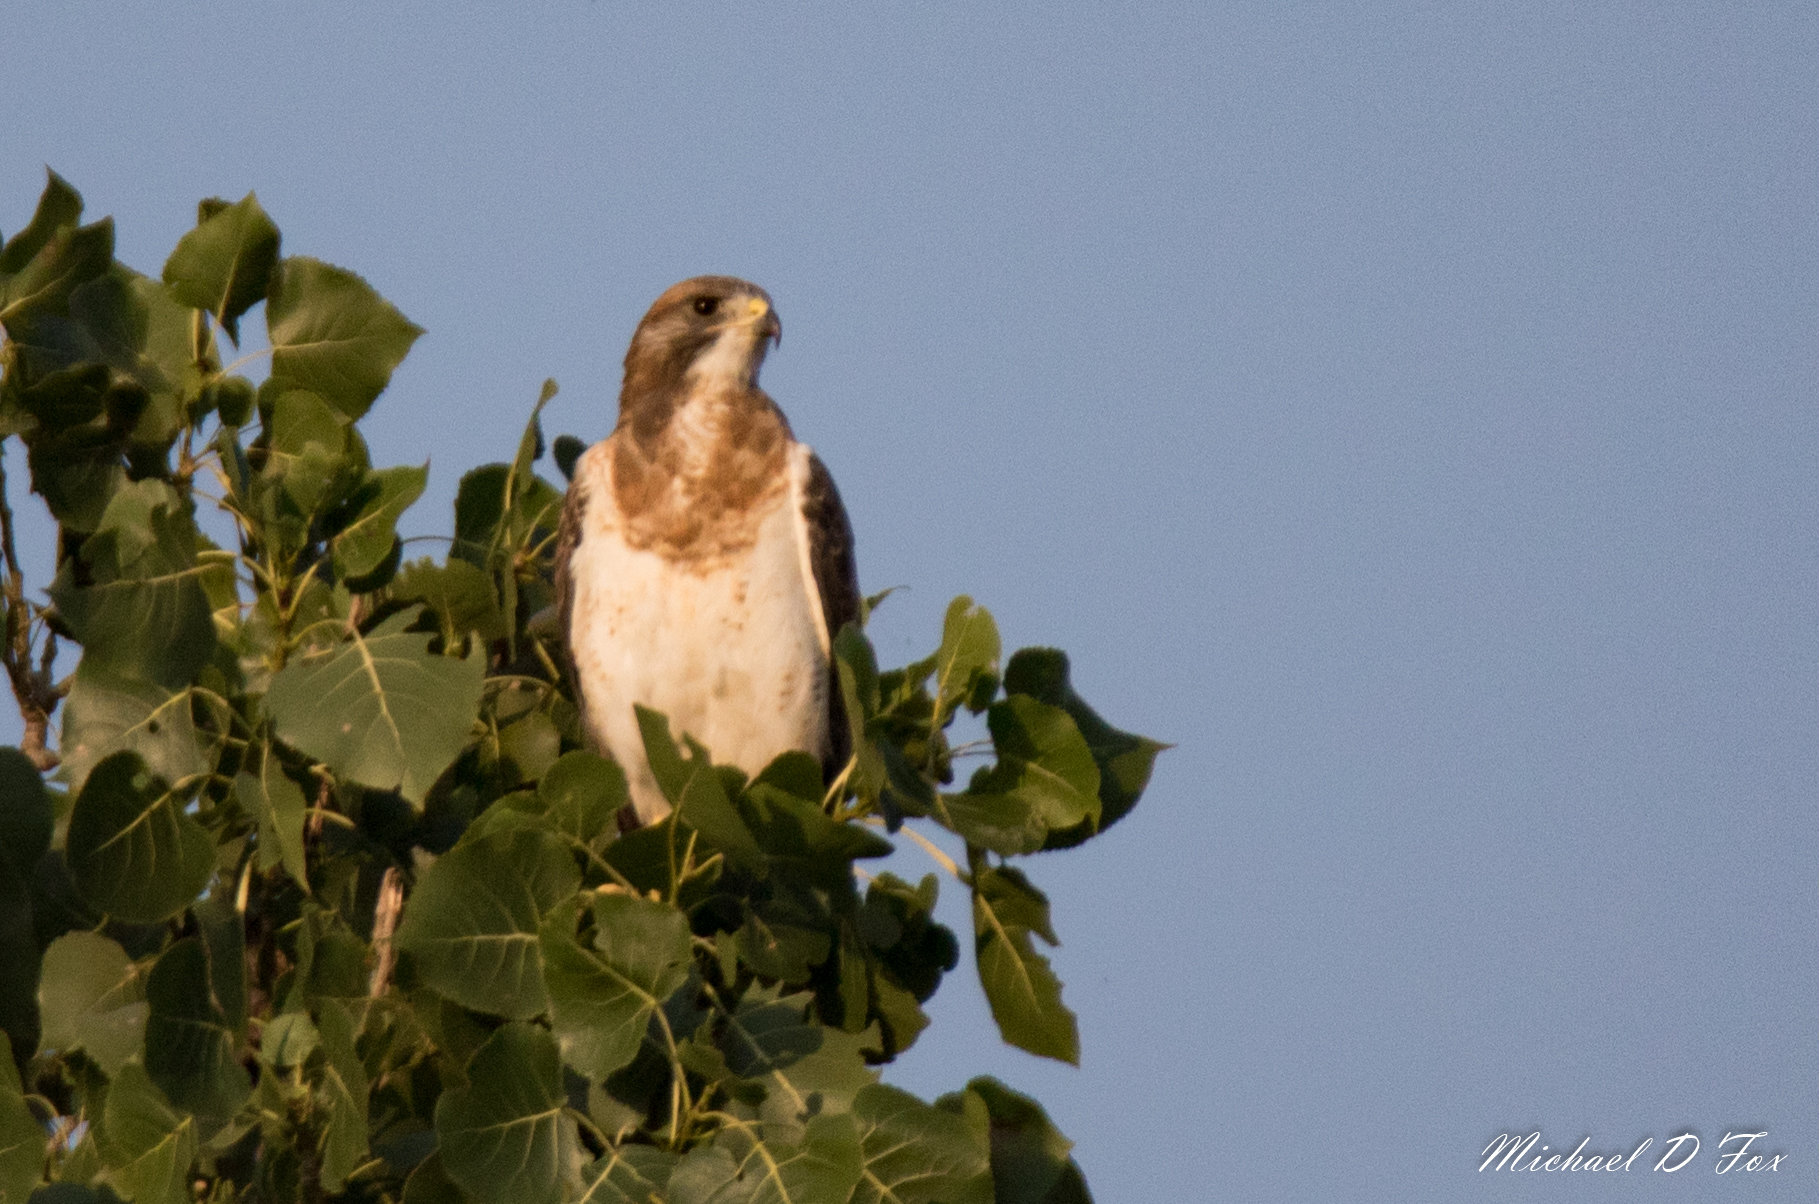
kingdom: Animalia
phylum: Chordata
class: Aves
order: Accipitriformes
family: Accipitridae
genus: Buteo
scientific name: Buteo swainsoni
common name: Swainson's hawk
